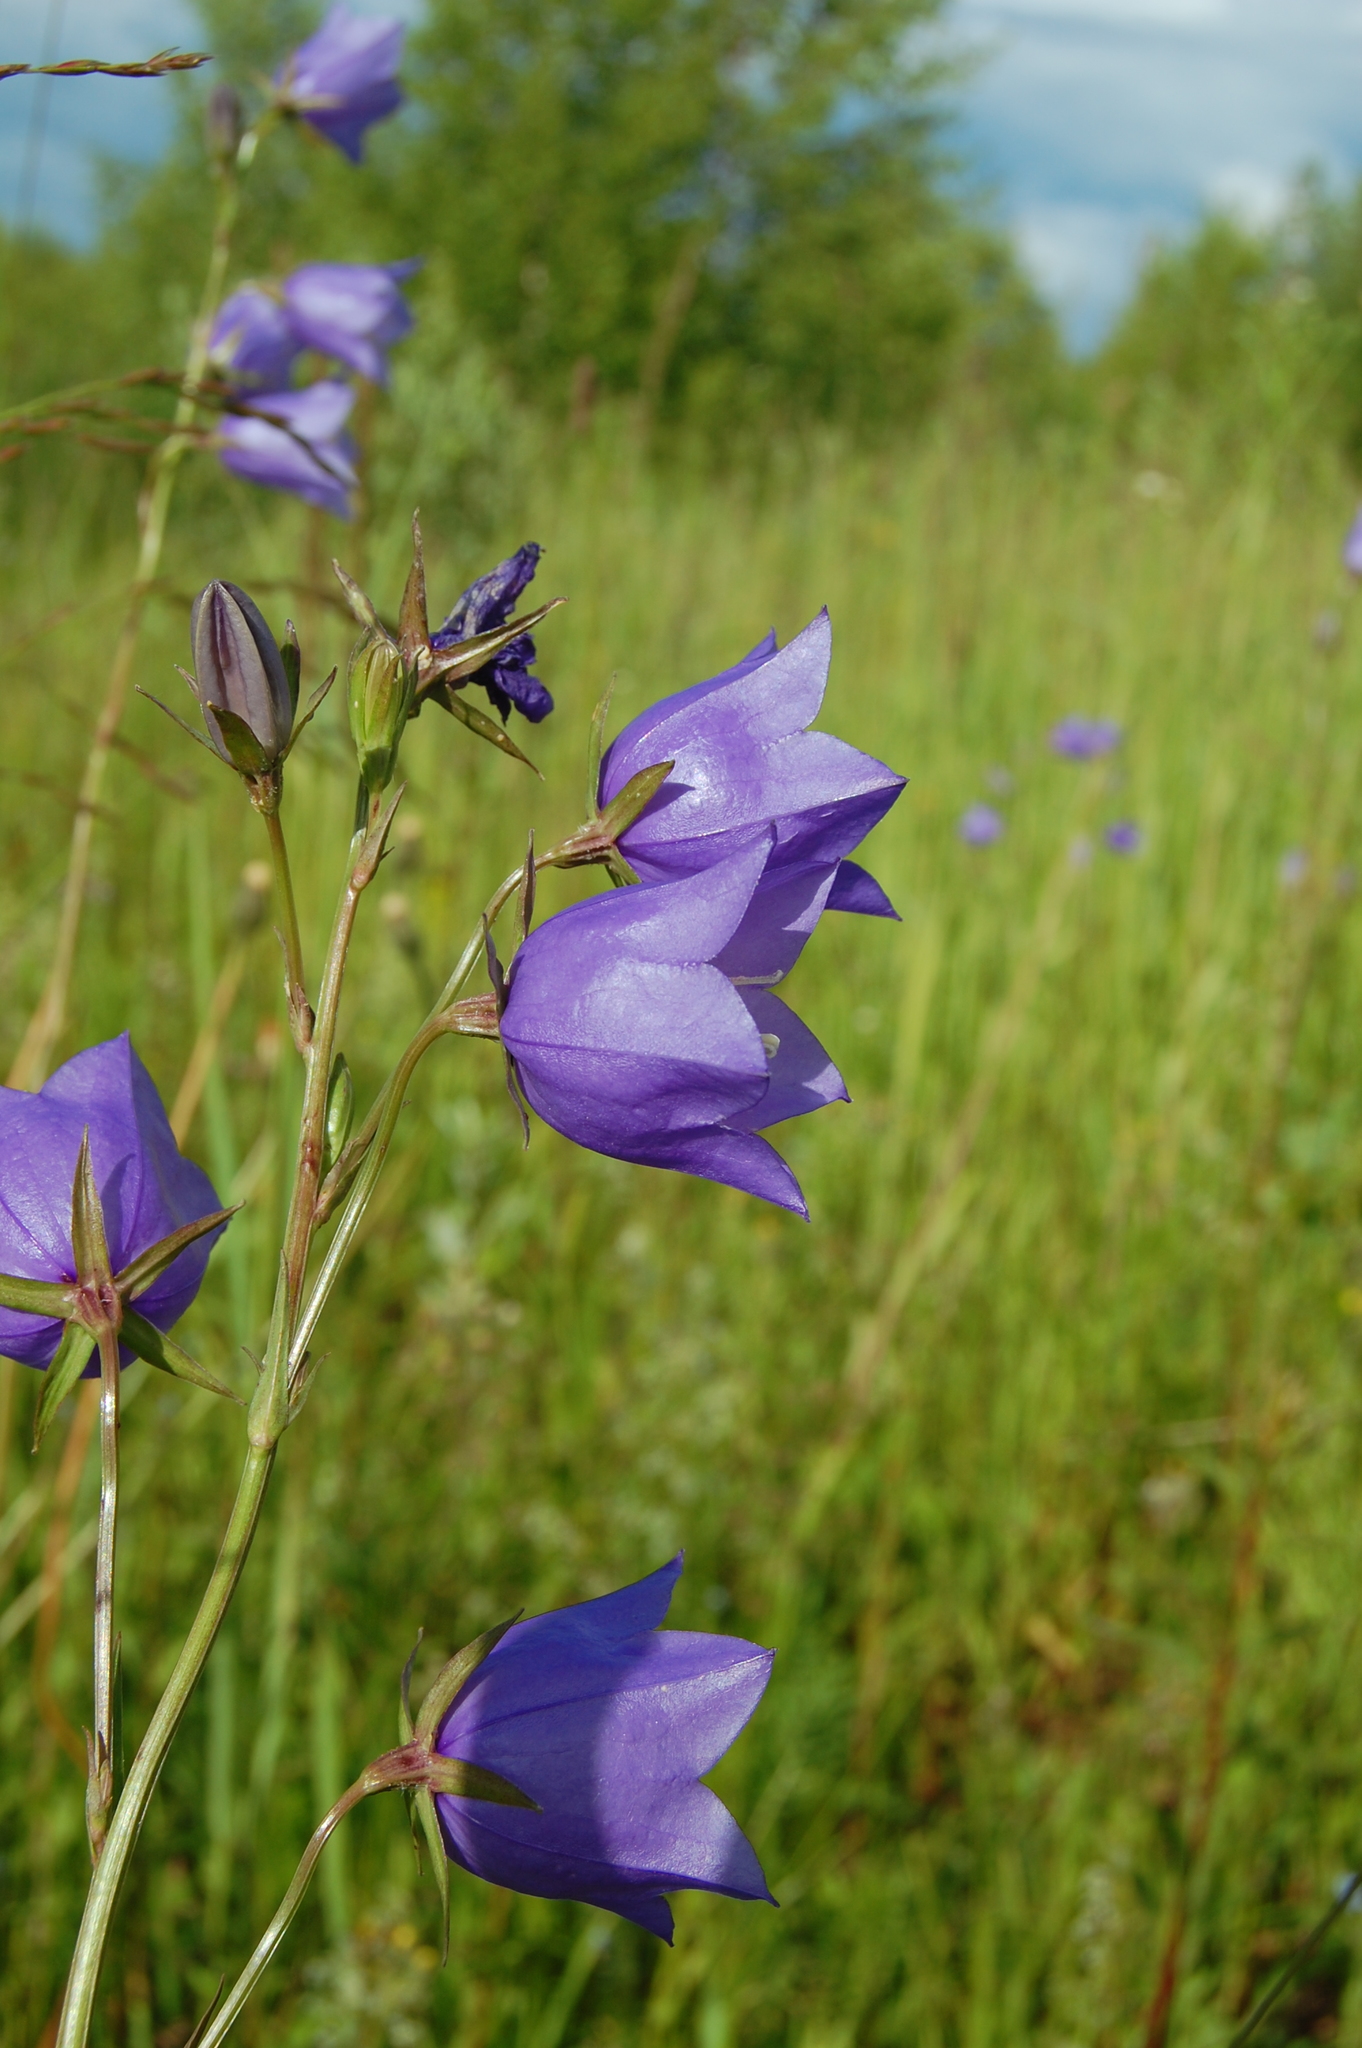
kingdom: Plantae
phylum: Tracheophyta
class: Magnoliopsida
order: Asterales
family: Campanulaceae
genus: Campanula
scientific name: Campanula persicifolia
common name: Peach-leaved bellflower
